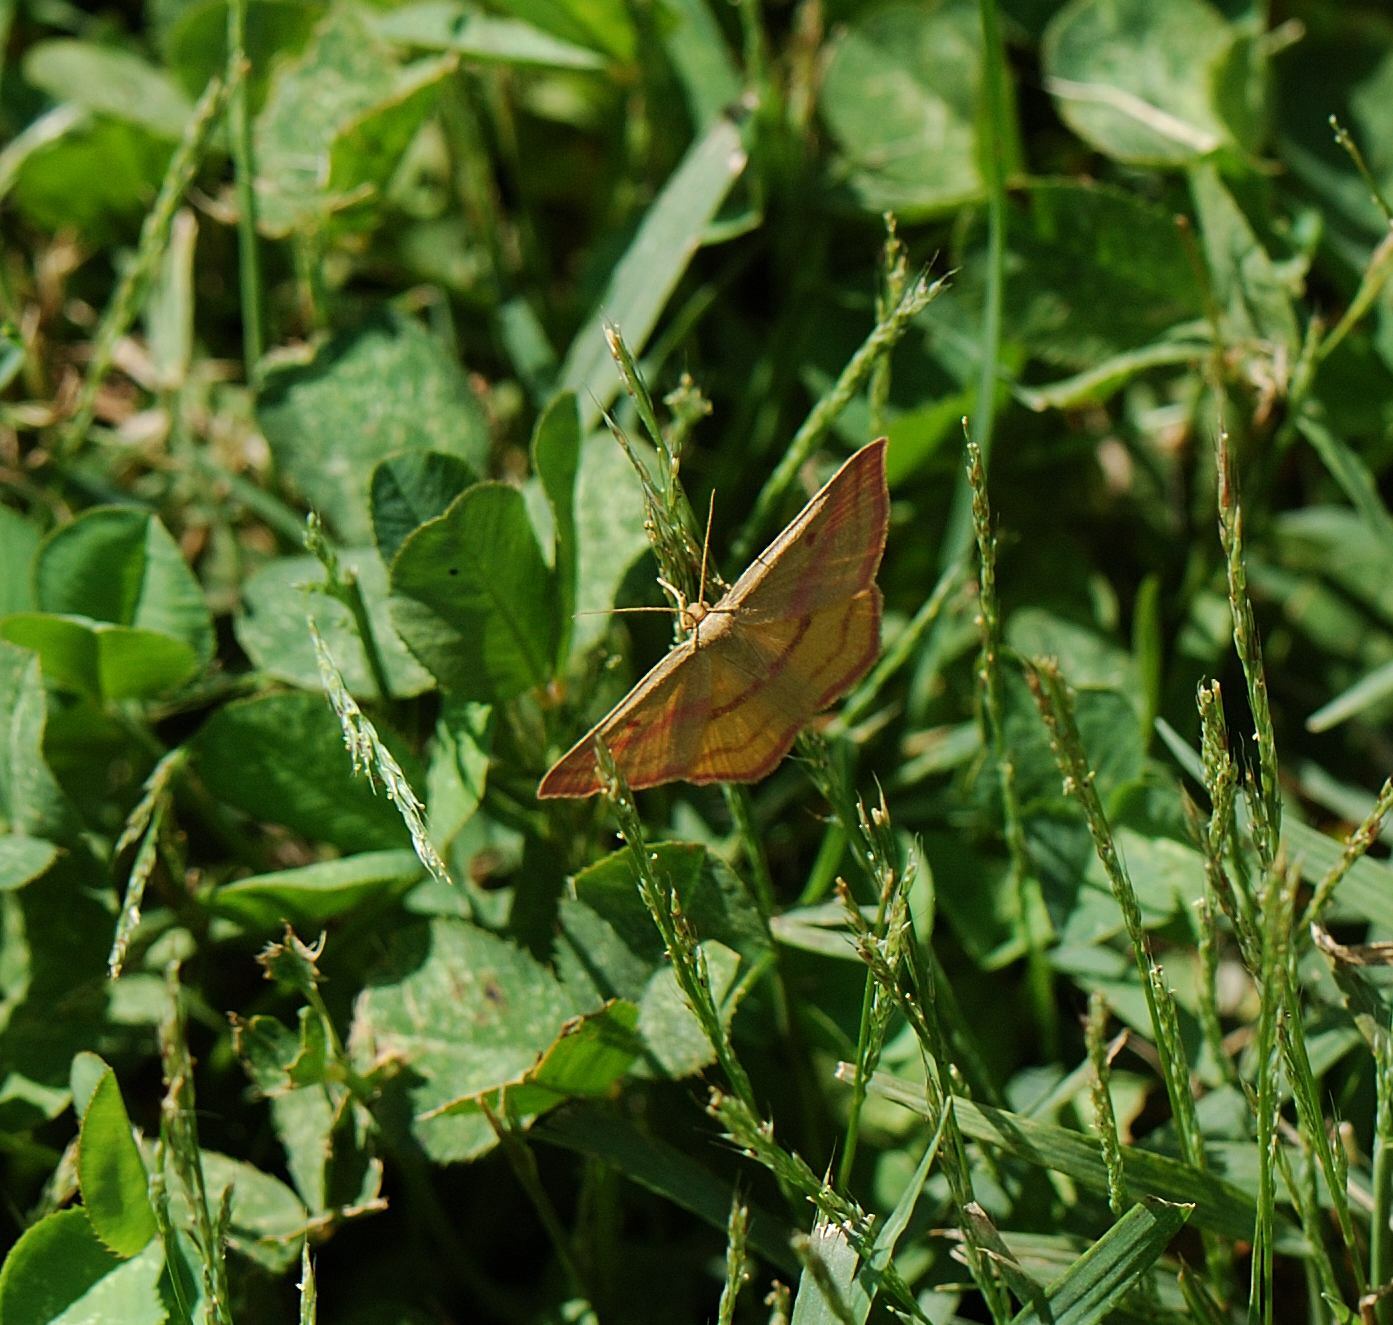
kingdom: Animalia
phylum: Arthropoda
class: Insecta
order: Lepidoptera
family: Geometridae
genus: Haematopis
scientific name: Haematopis grataria
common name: Chickweed geometer
